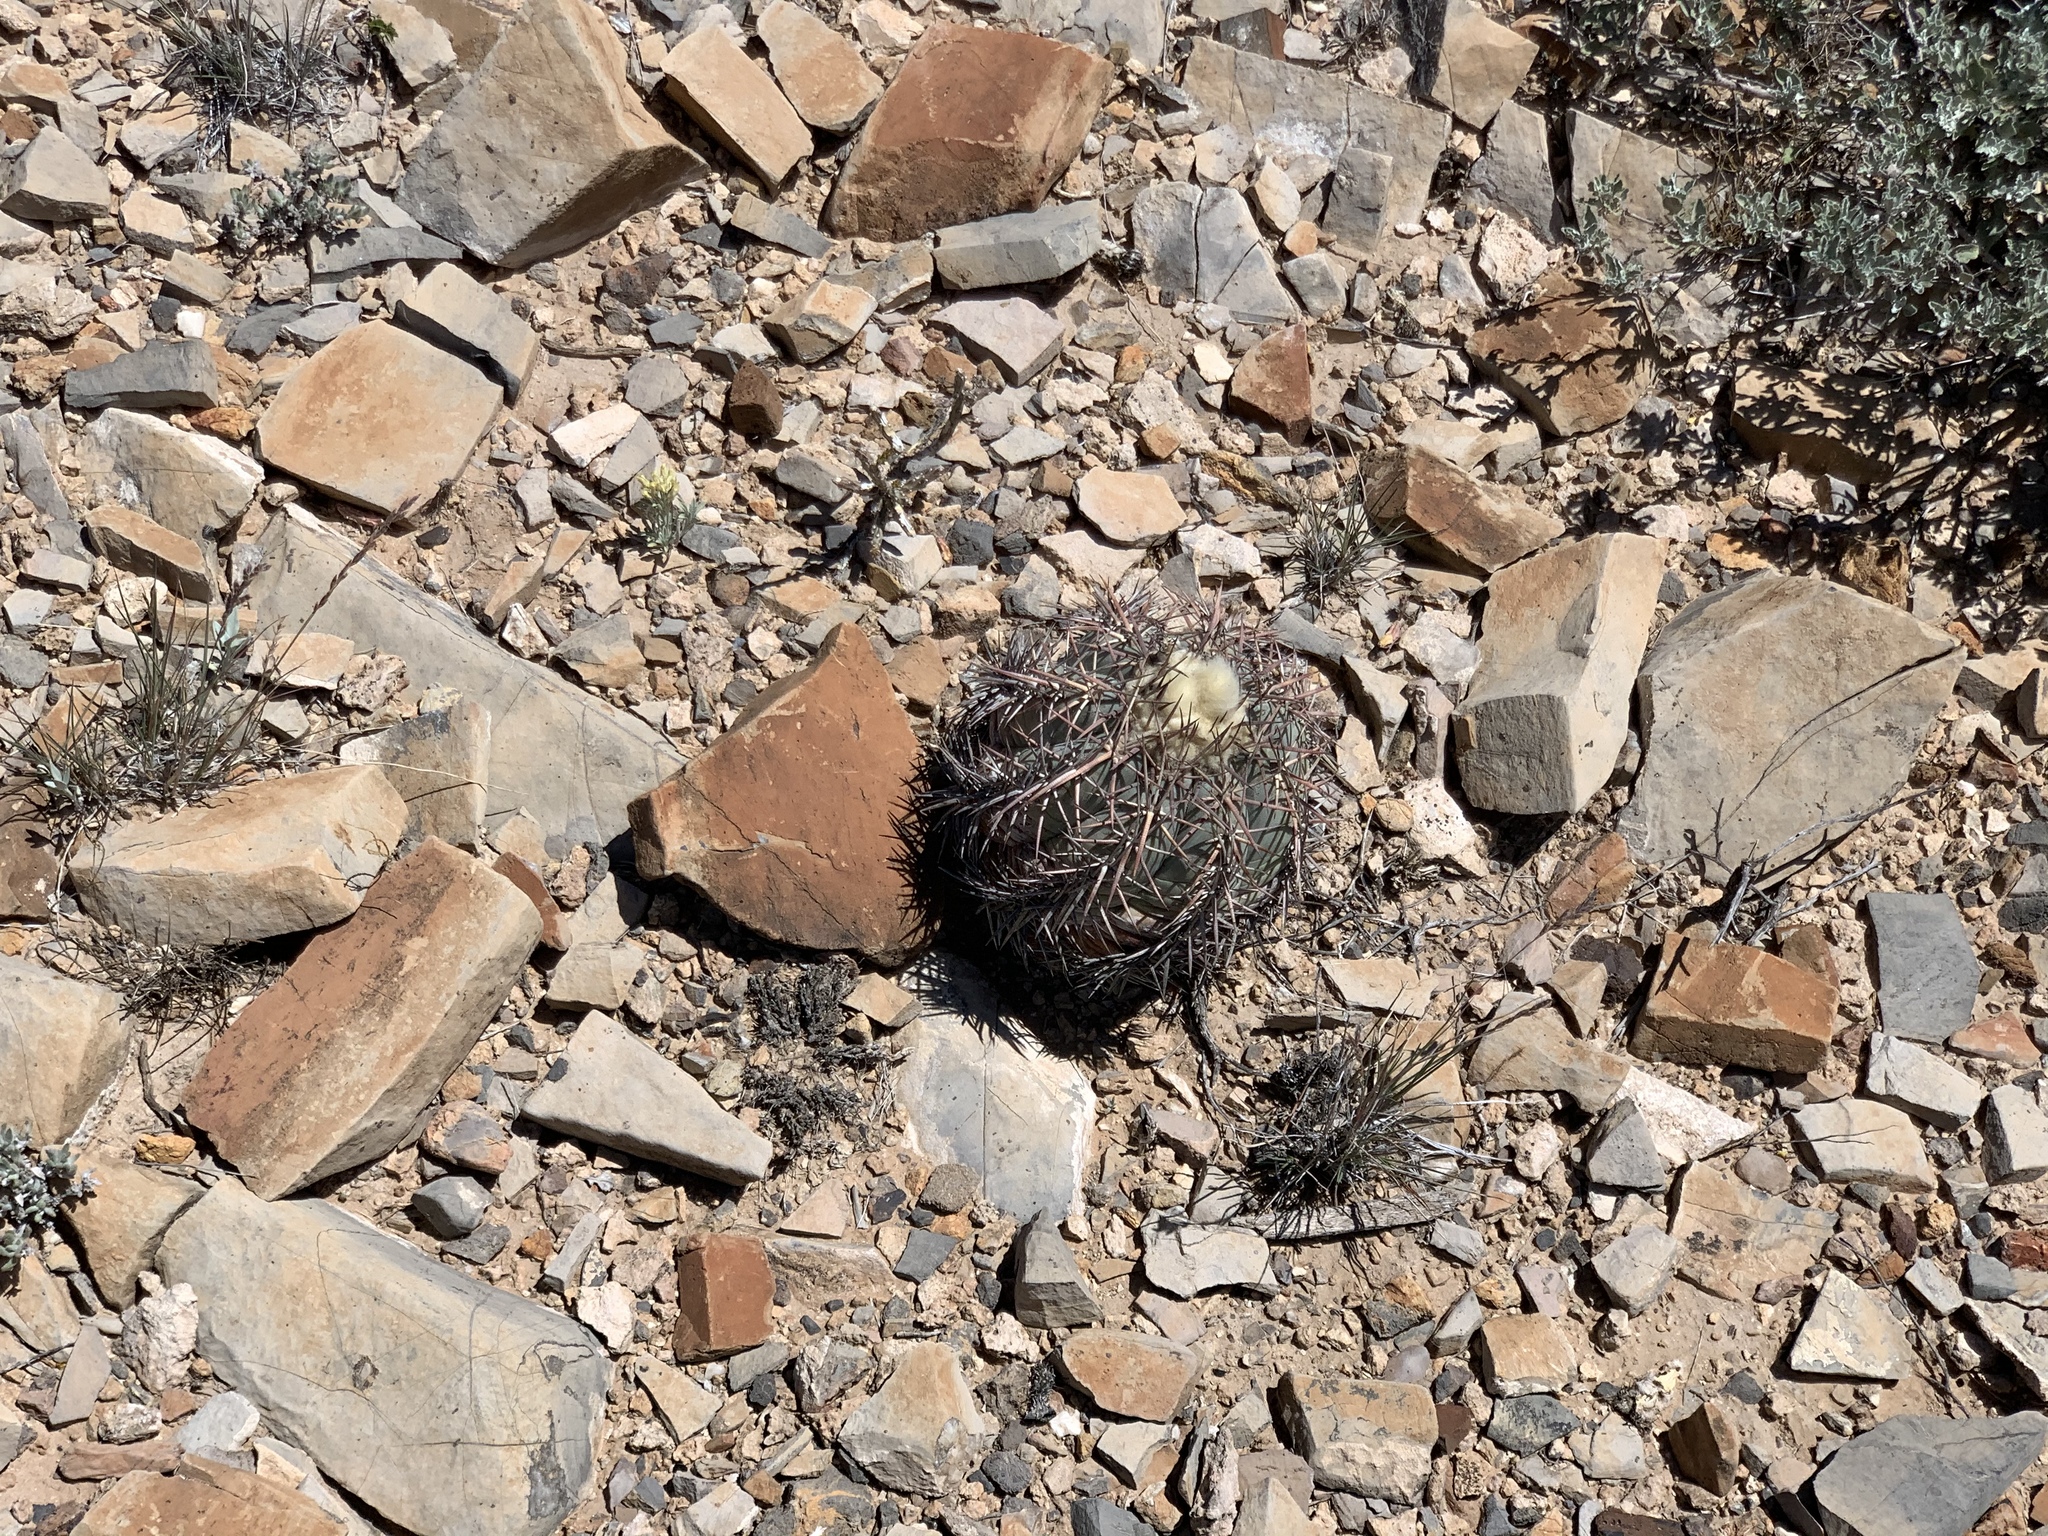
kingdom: Plantae
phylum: Tracheophyta
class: Magnoliopsida
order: Caryophyllales
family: Cactaceae
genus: Echinocactus
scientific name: Echinocactus horizonthalonius
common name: Devilshead
